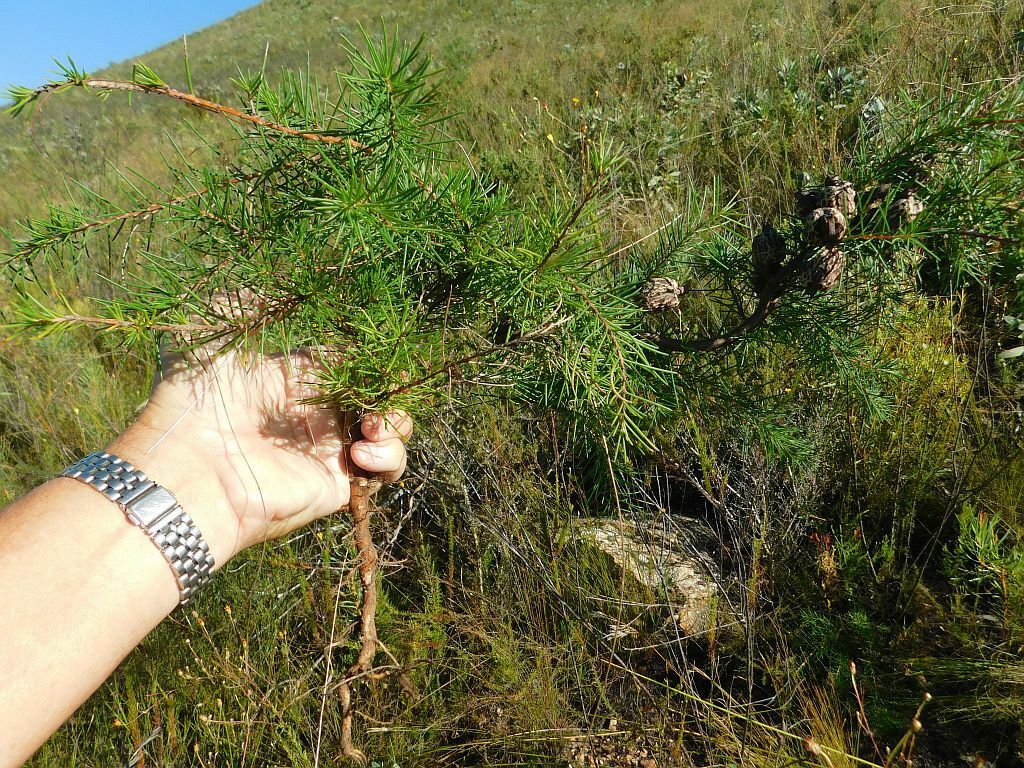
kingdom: Plantae
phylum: Tracheophyta
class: Magnoliopsida
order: Proteales
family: Proteaceae
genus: Hakea
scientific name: Hakea sericea
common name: Needle bush
